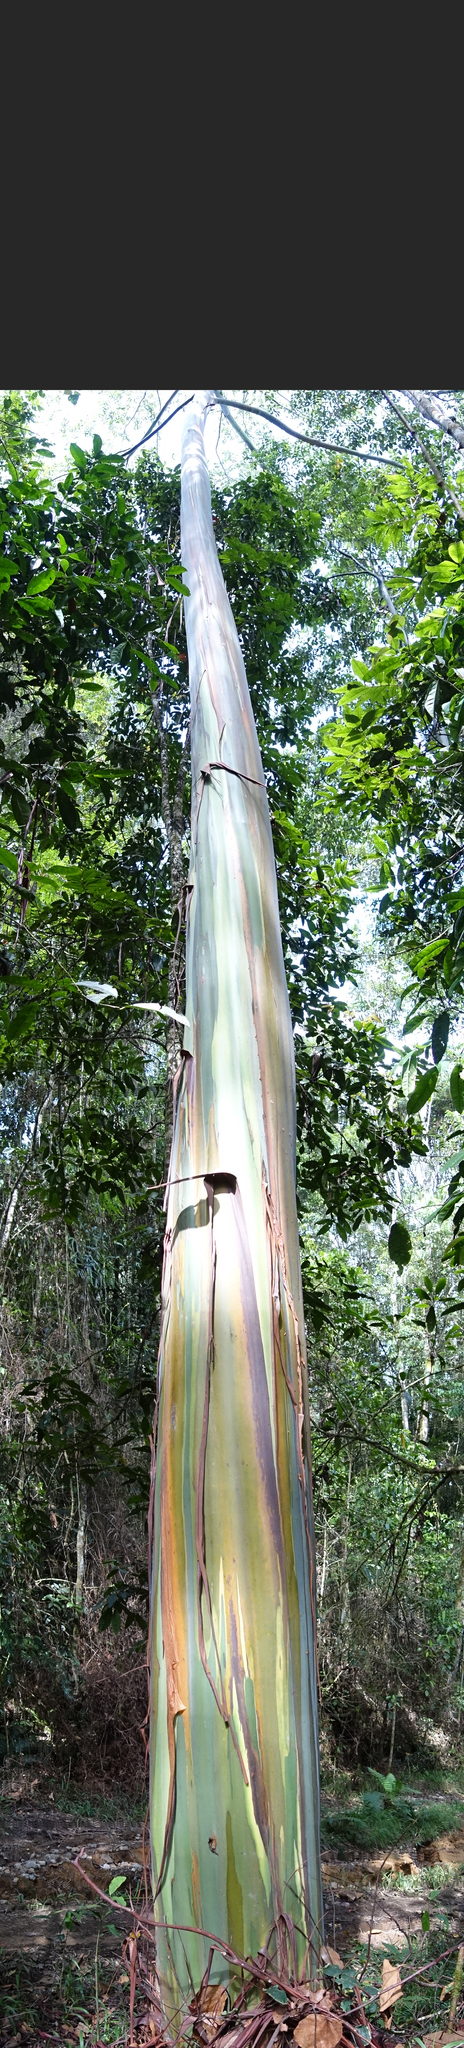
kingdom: Plantae
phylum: Tracheophyta
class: Magnoliopsida
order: Myrtales
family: Myrtaceae
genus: Eucalyptus
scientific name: Eucalyptus deglupta
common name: Mindanao gum
